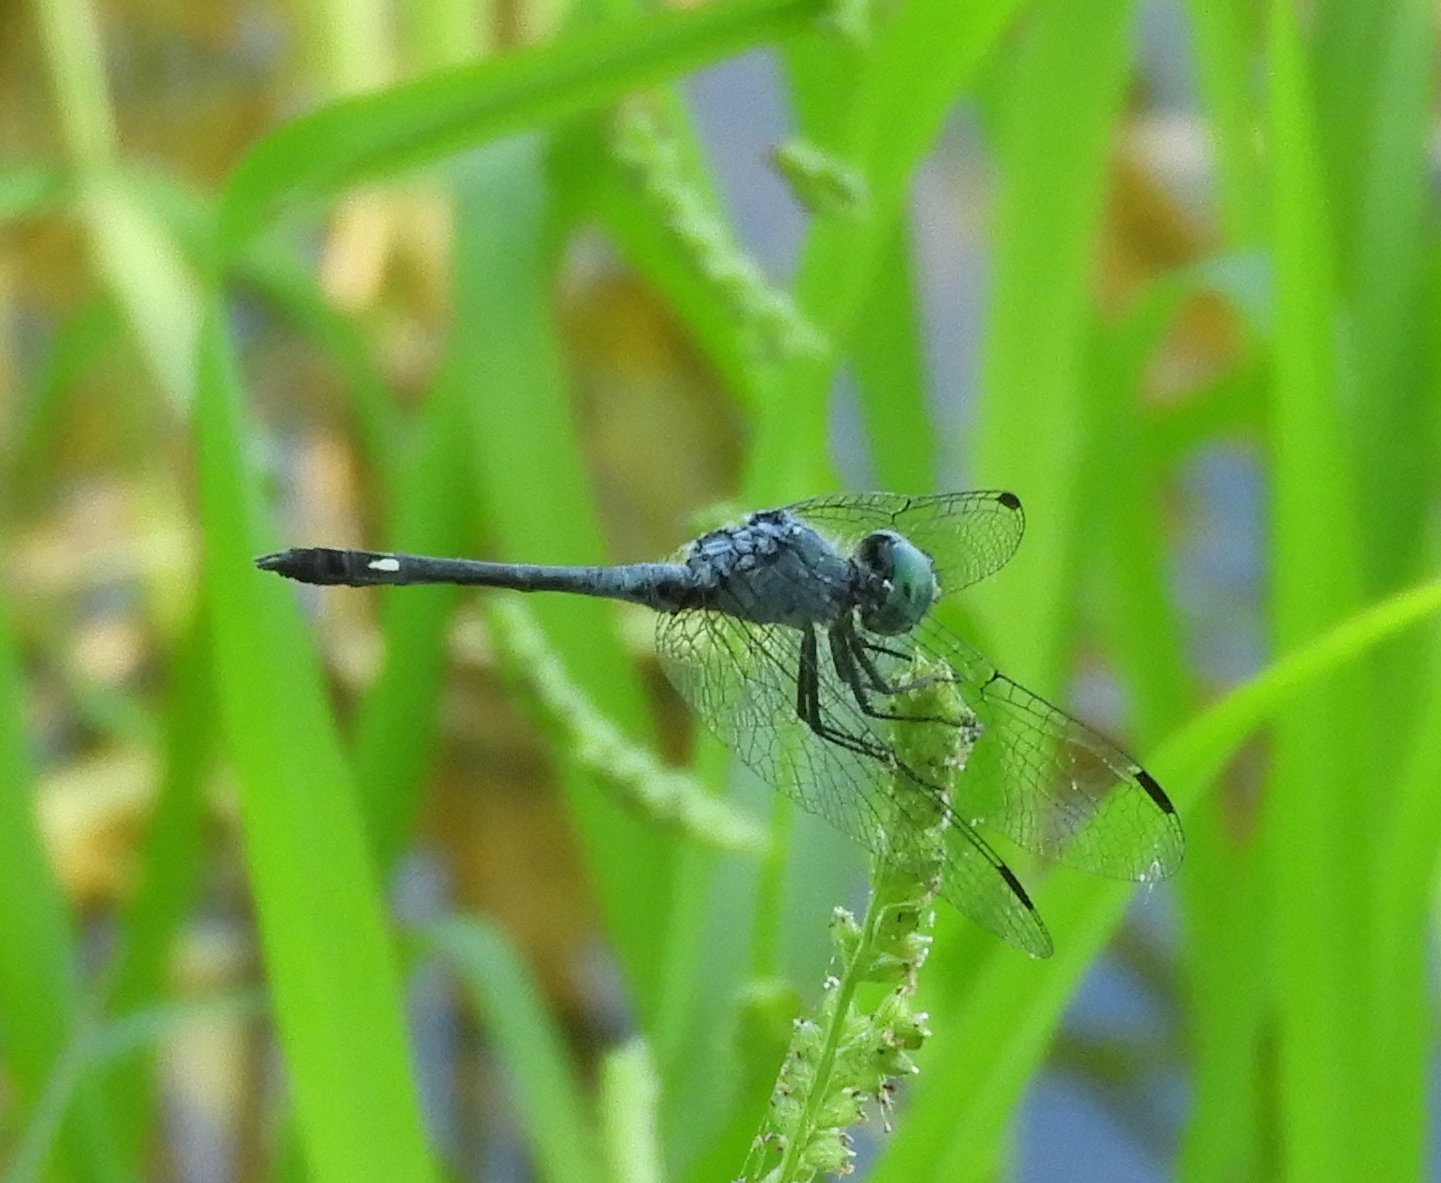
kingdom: Animalia
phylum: Arthropoda
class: Insecta
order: Odonata
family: Libellulidae
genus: Micrathyria
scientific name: Micrathyria aequalis
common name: Spot-tailed dasher
